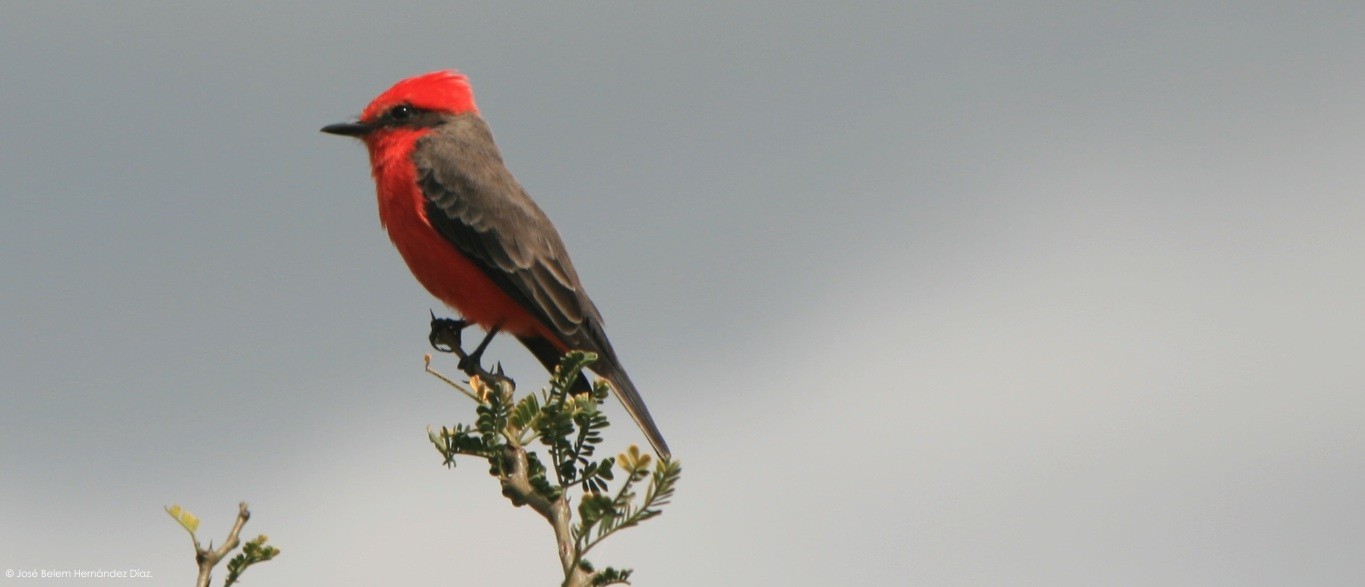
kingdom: Animalia
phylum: Chordata
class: Aves
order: Passeriformes
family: Tyrannidae
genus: Pyrocephalus
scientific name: Pyrocephalus rubinus
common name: Vermilion flycatcher
